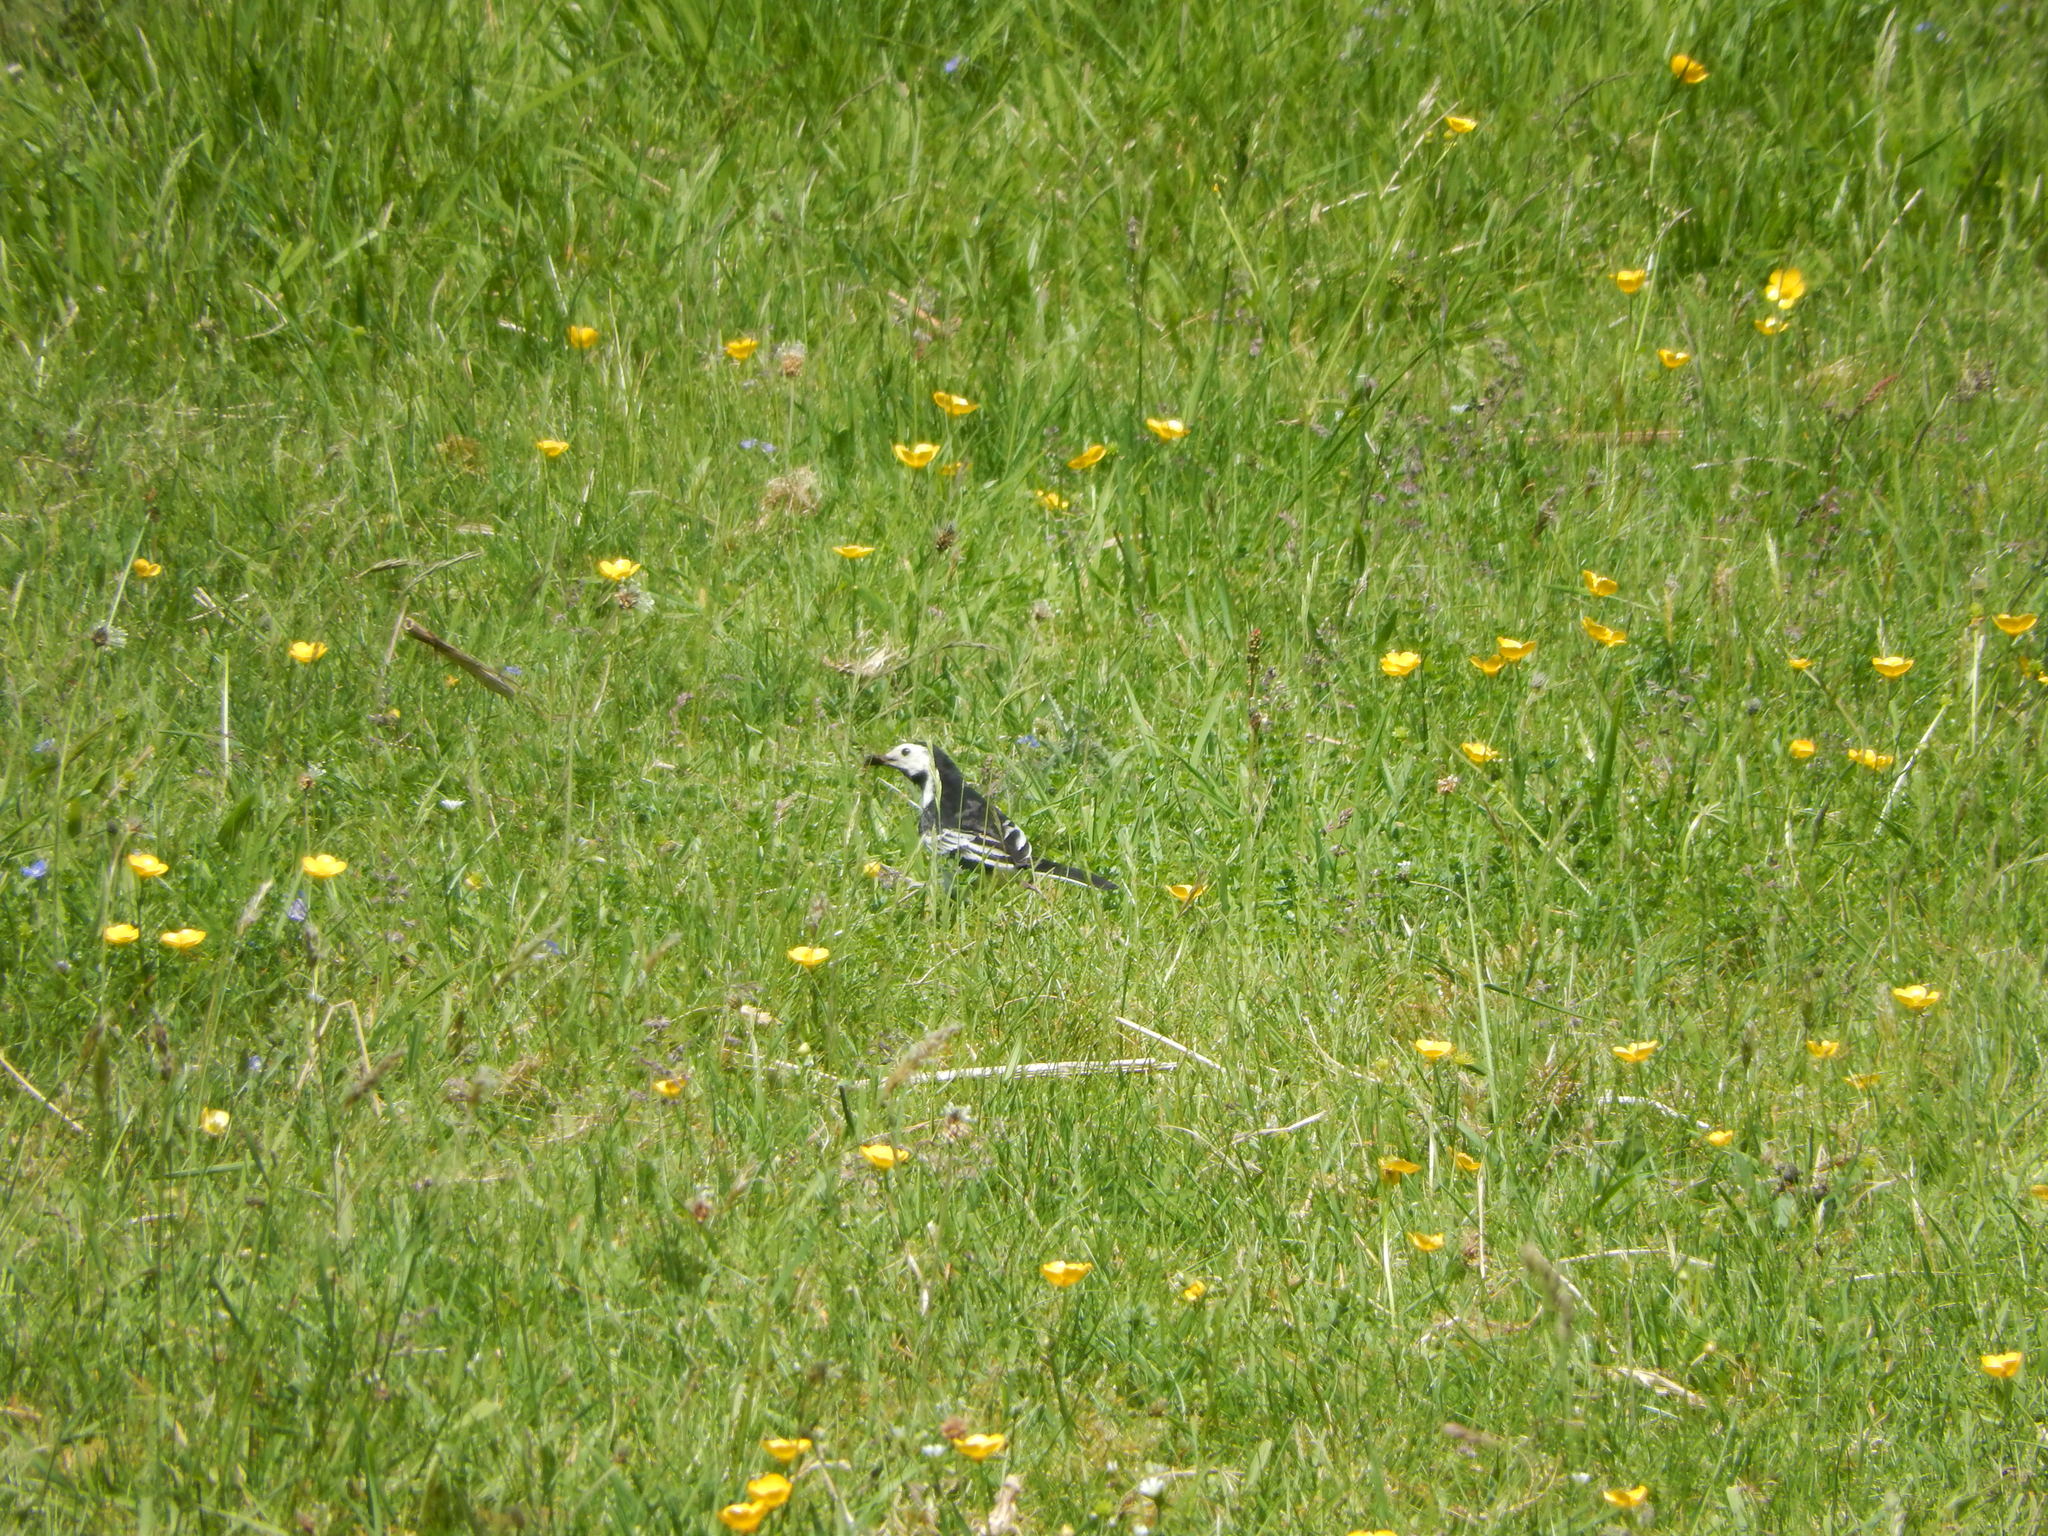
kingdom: Animalia
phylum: Chordata
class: Aves
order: Passeriformes
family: Motacillidae
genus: Motacilla
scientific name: Motacilla alba
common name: White wagtail
